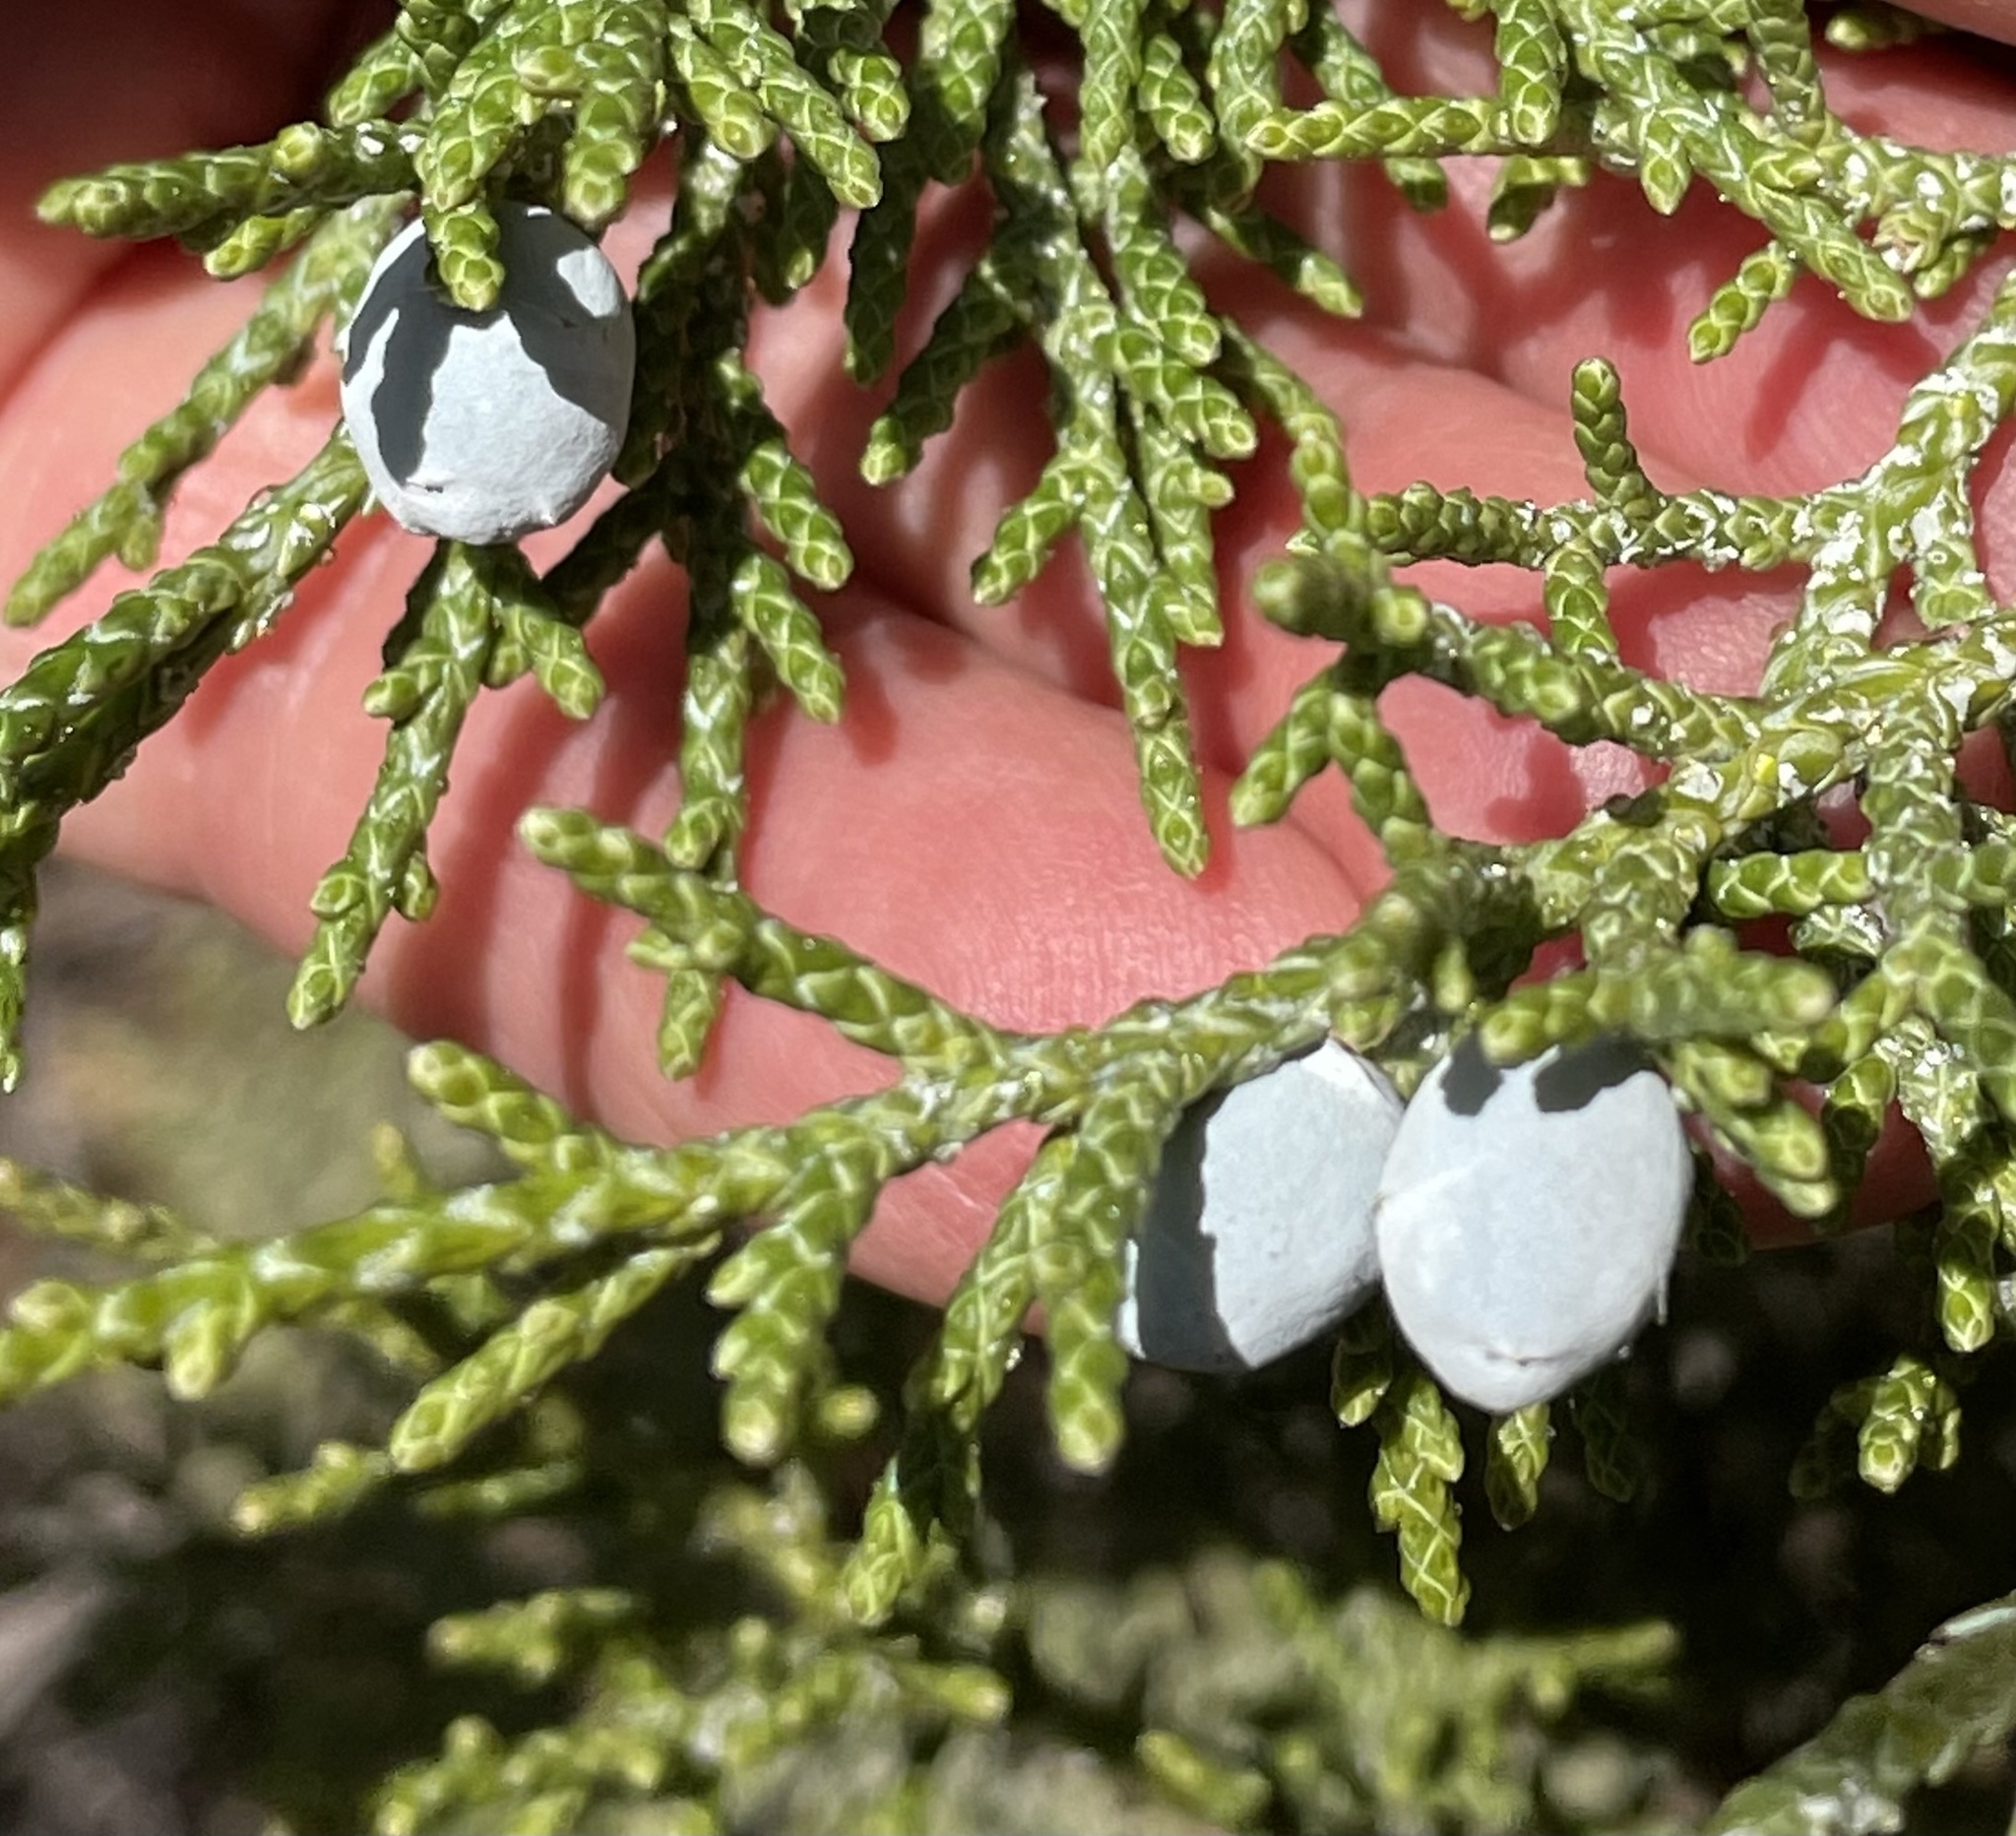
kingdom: Plantae
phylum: Tracheophyta
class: Pinopsida
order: Pinales
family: Cupressaceae
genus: Juniperus
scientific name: Juniperus occidentalis
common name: Western juniper
